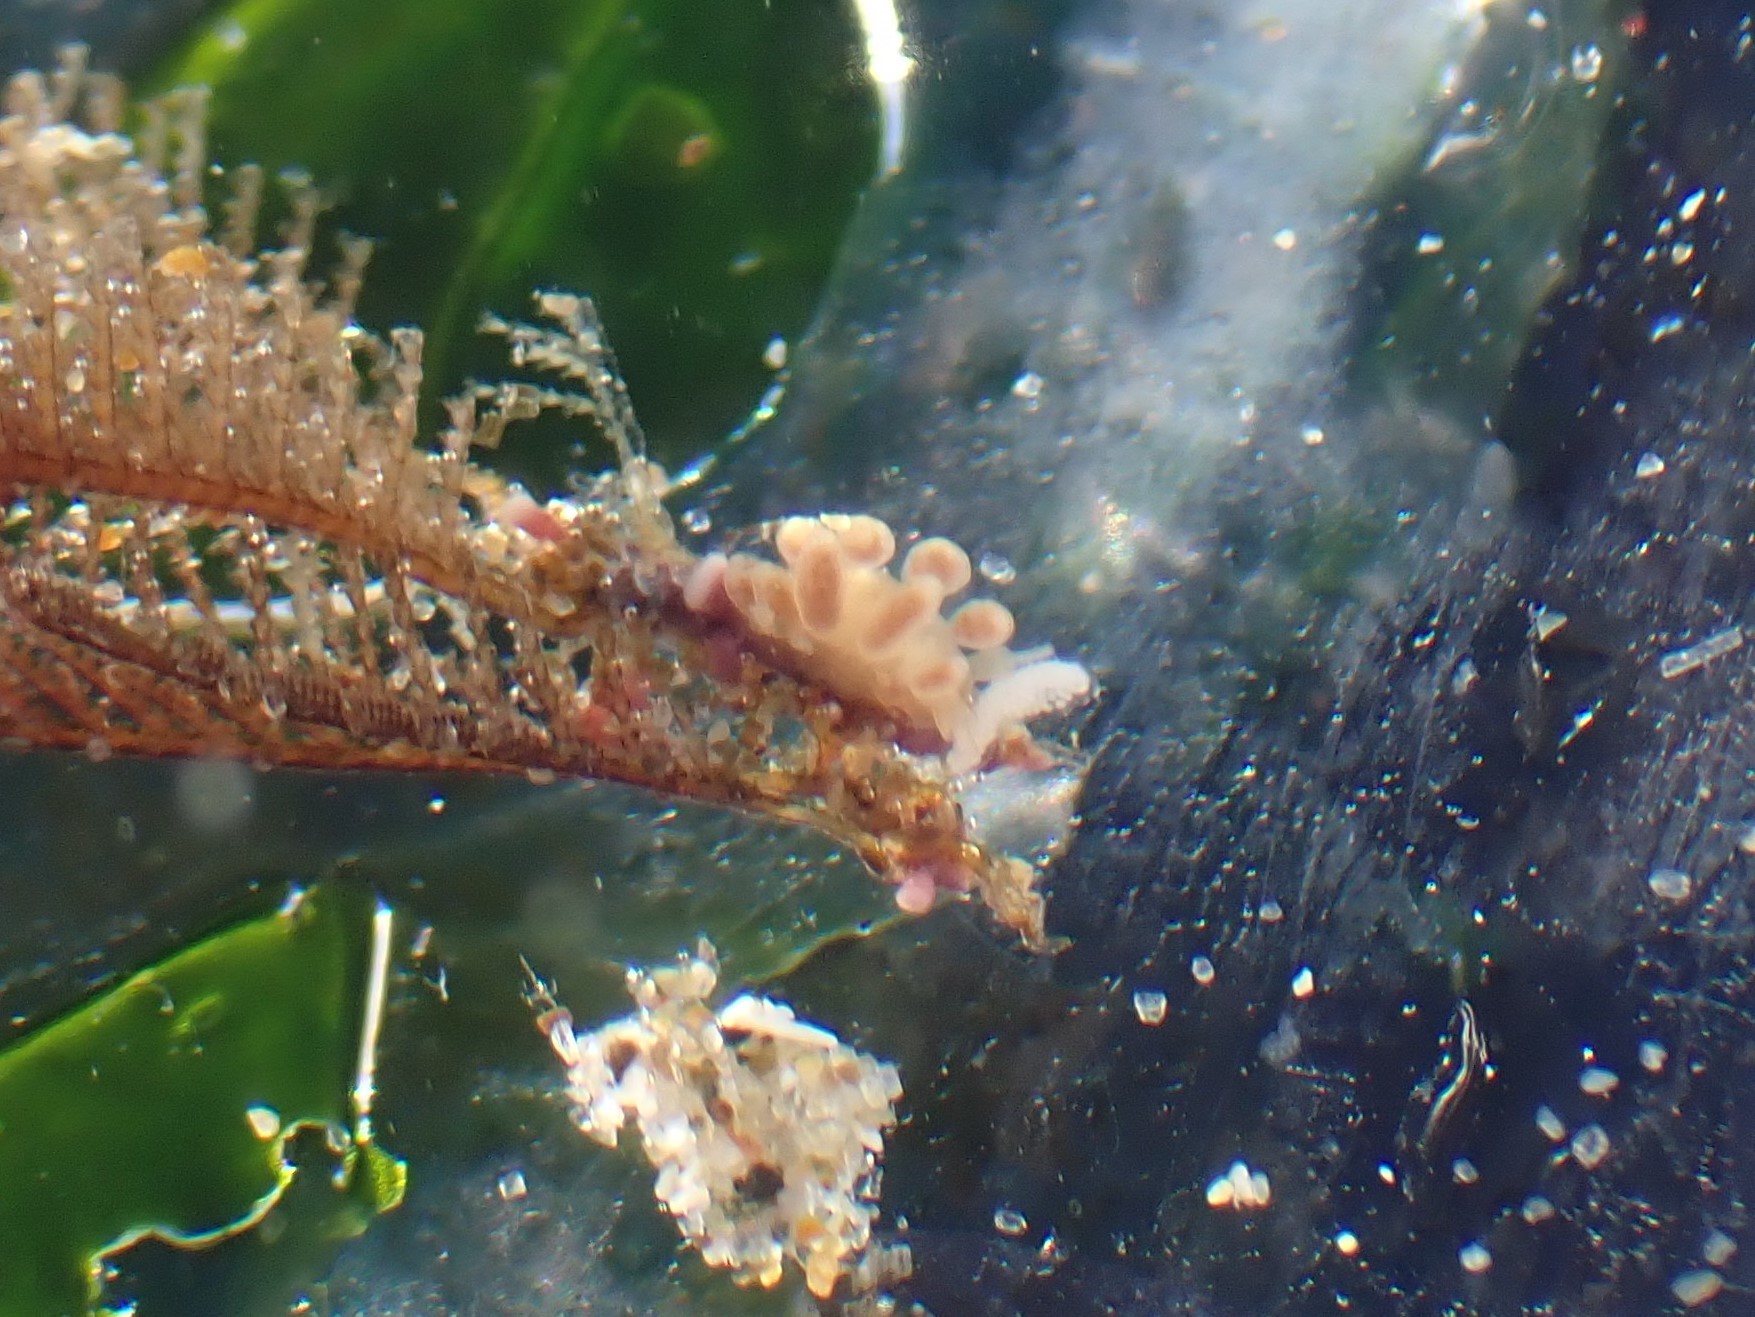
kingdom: Animalia
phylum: Mollusca
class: Gastropoda
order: Nudibranchia
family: Dotidae
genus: Doto
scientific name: Doto columbiana
